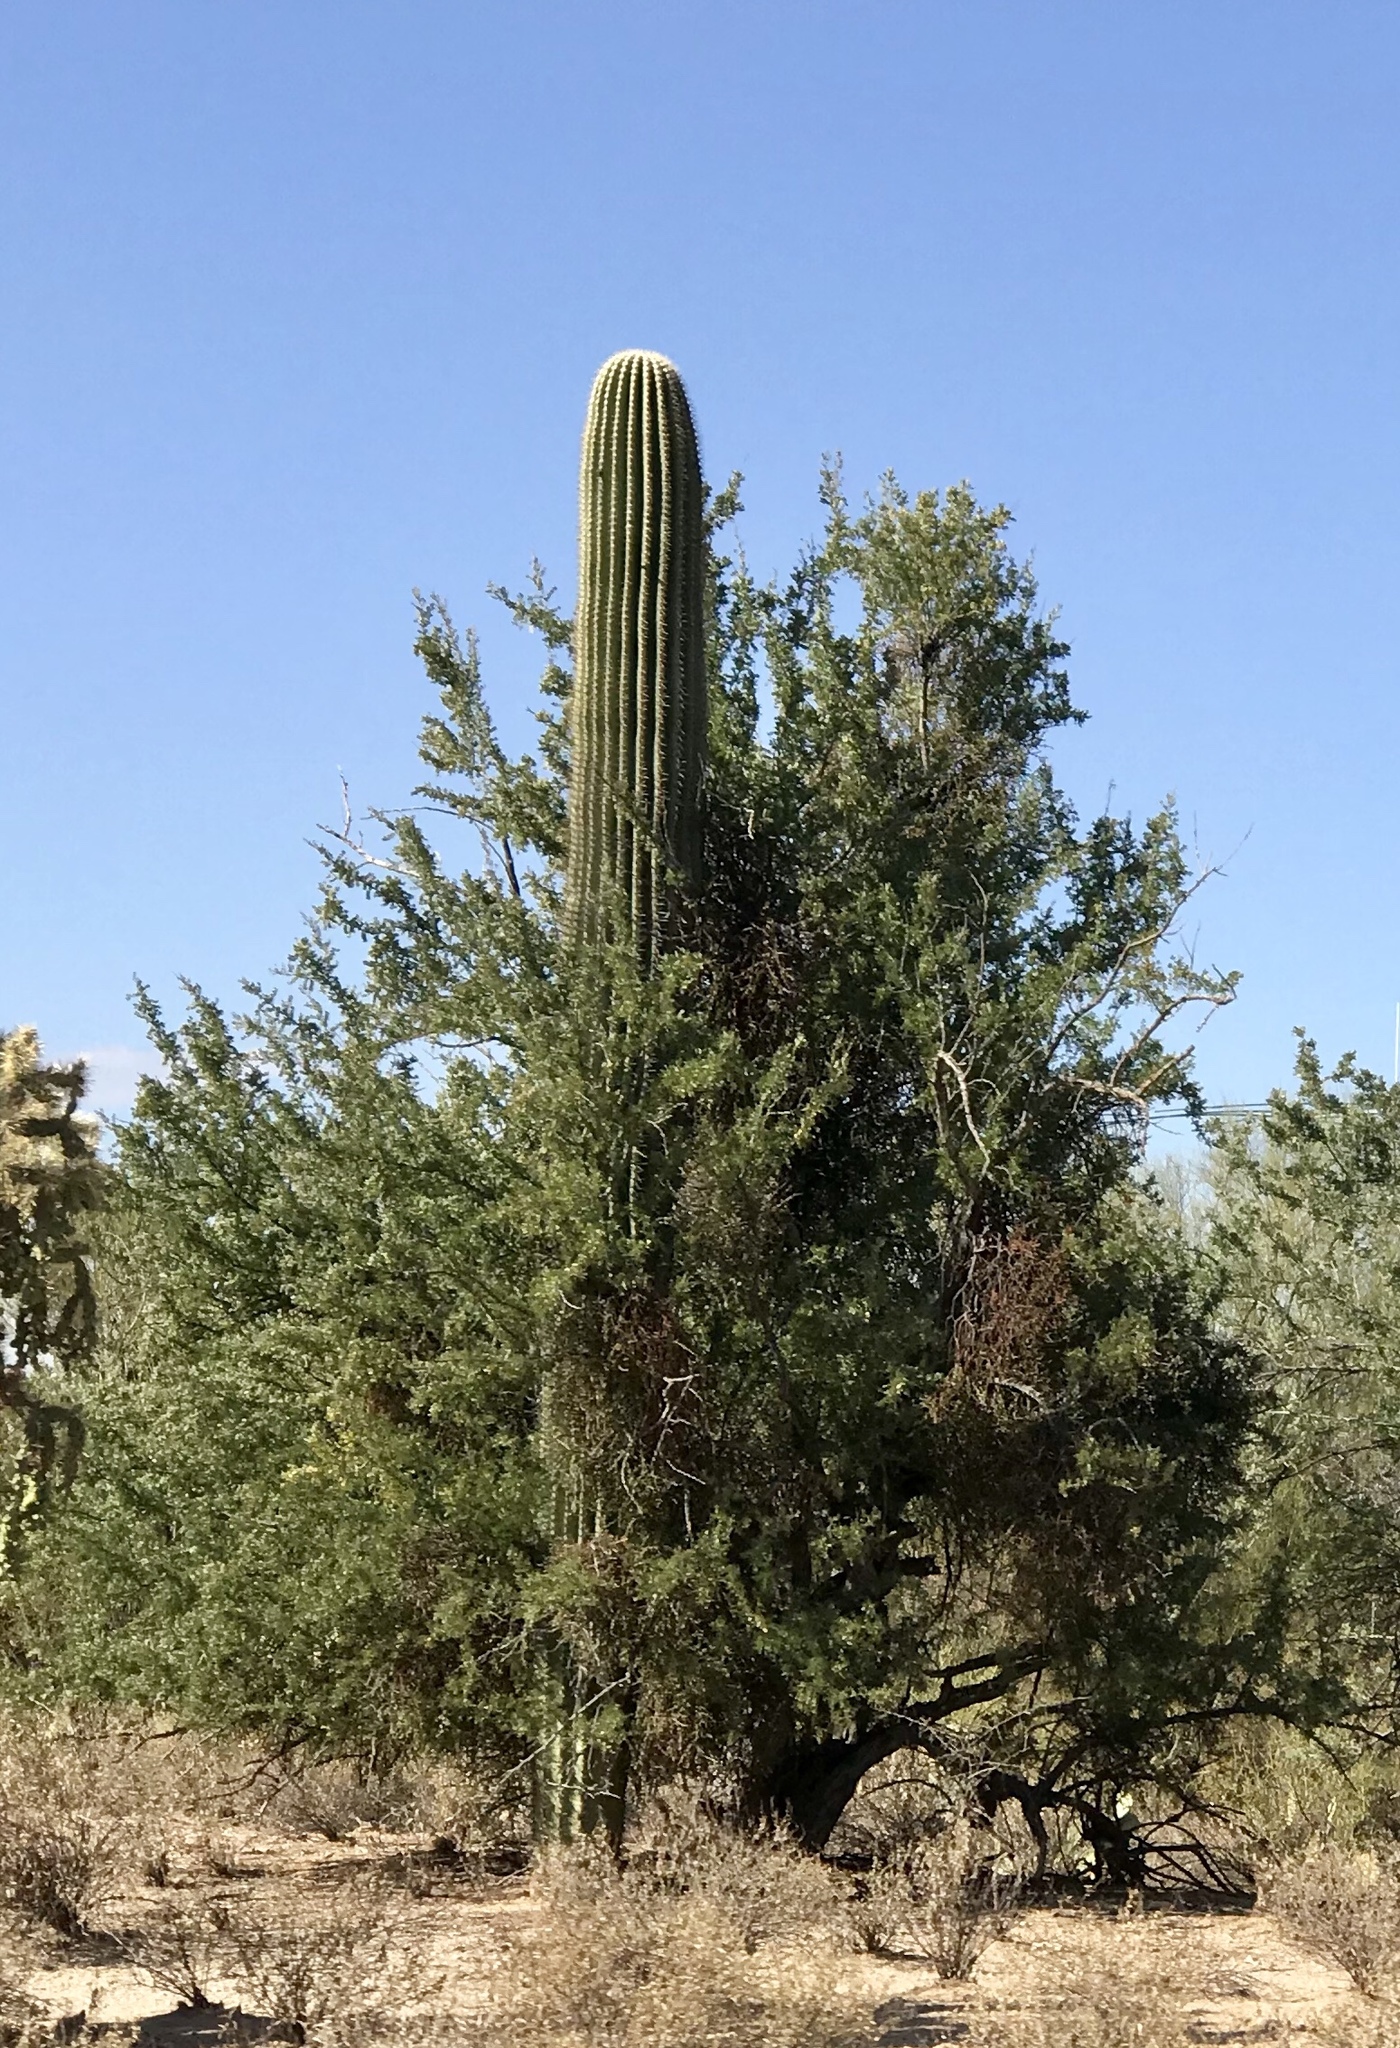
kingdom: Plantae
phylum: Tracheophyta
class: Magnoliopsida
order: Caryophyllales
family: Cactaceae
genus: Carnegiea
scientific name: Carnegiea gigantea
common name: Saguaro
